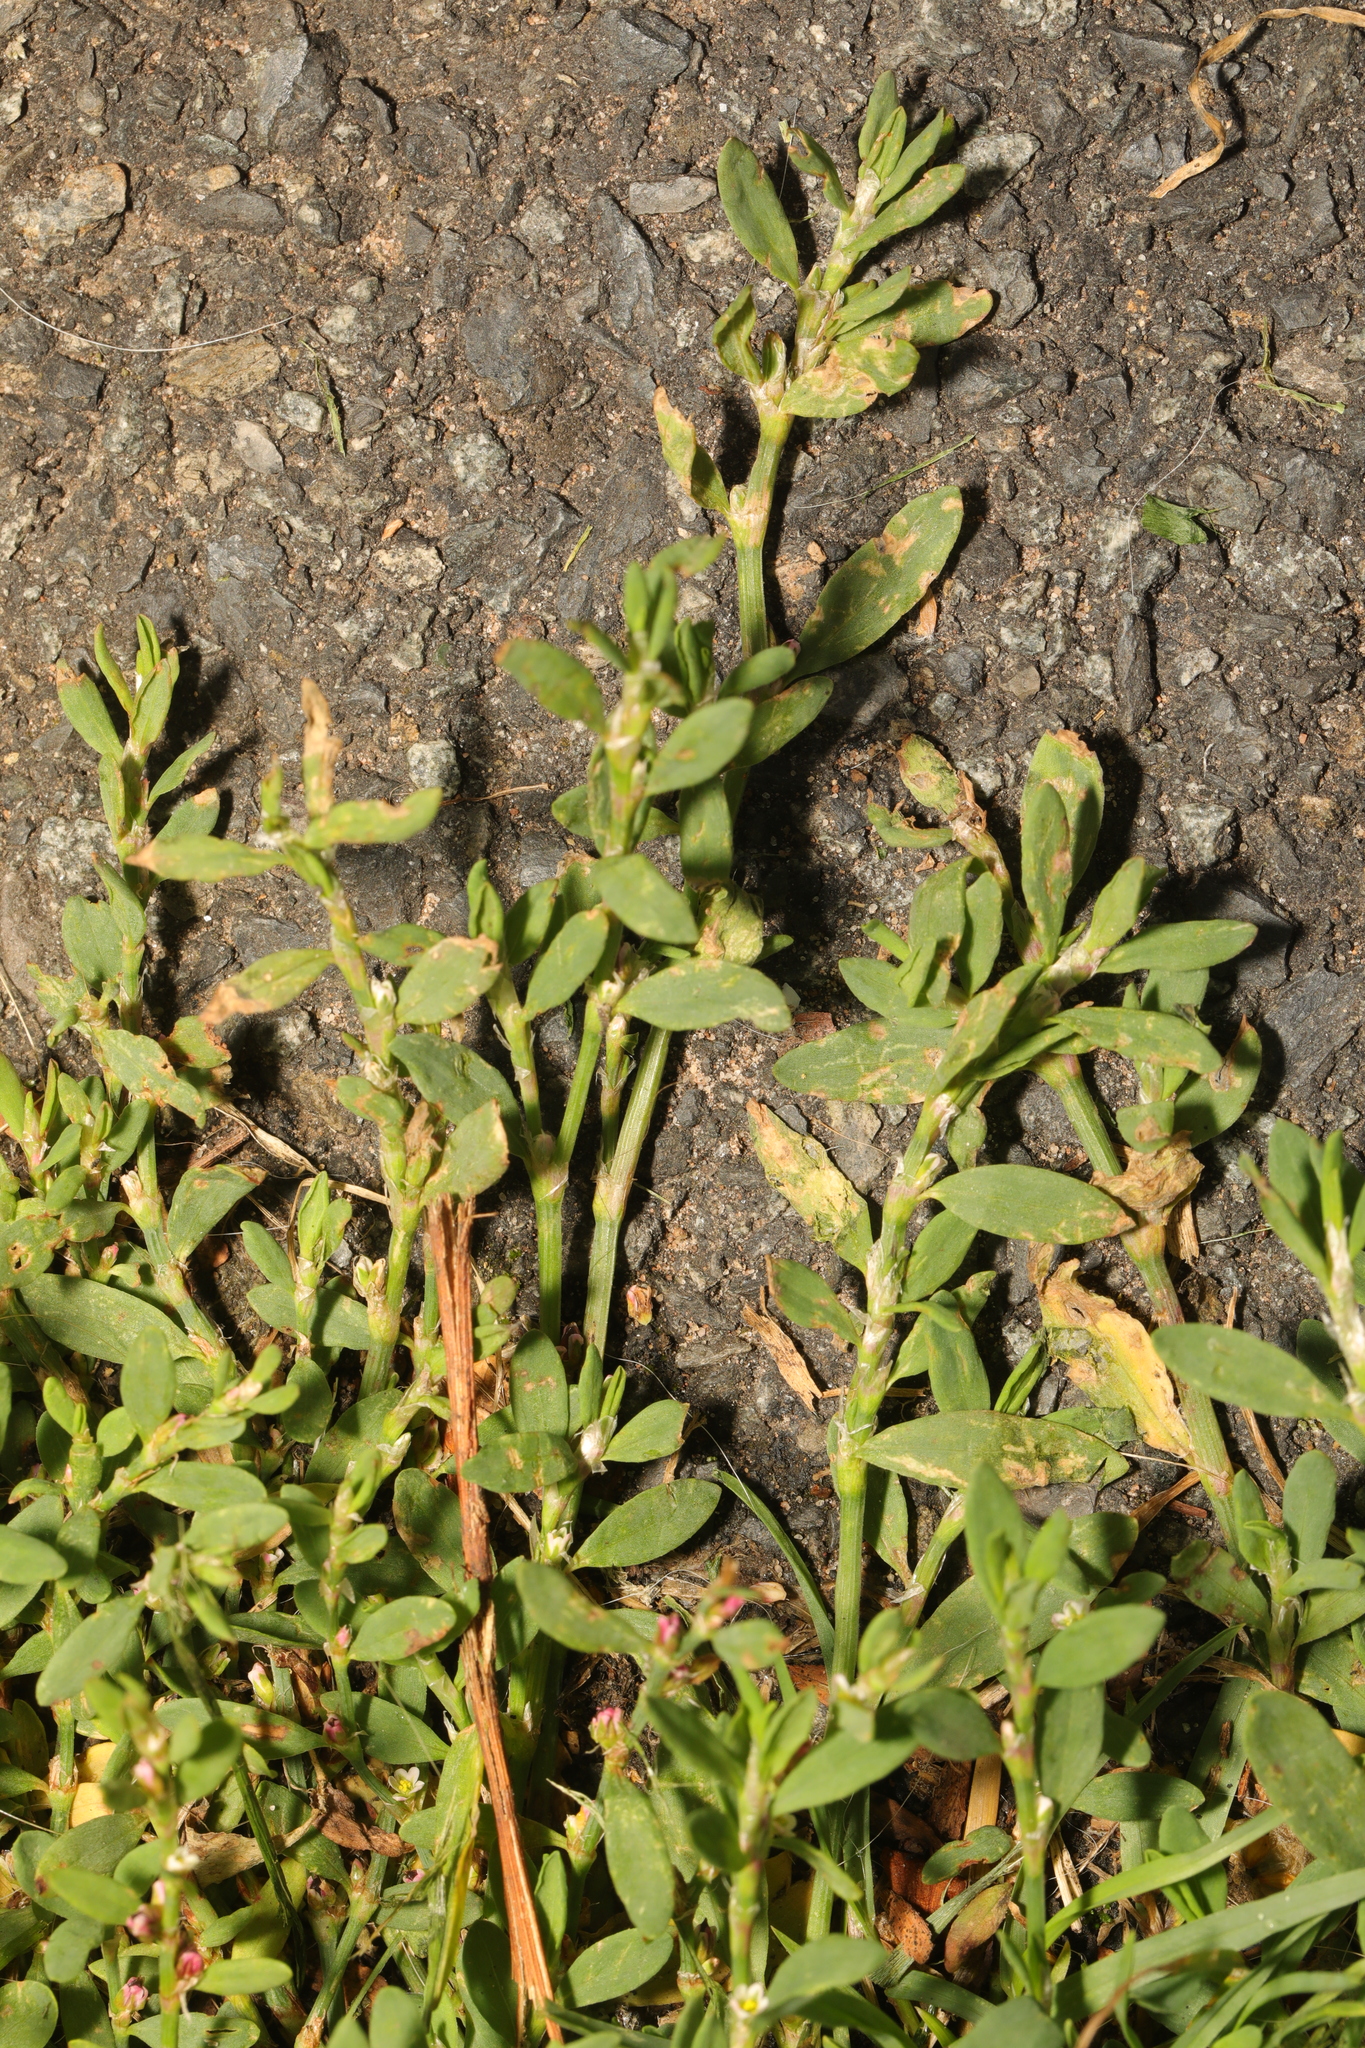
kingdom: Plantae
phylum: Tracheophyta
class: Magnoliopsida
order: Caryophyllales
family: Polygonaceae
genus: Polygonum
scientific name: Polygonum aviculare
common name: Prostrate knotweed
